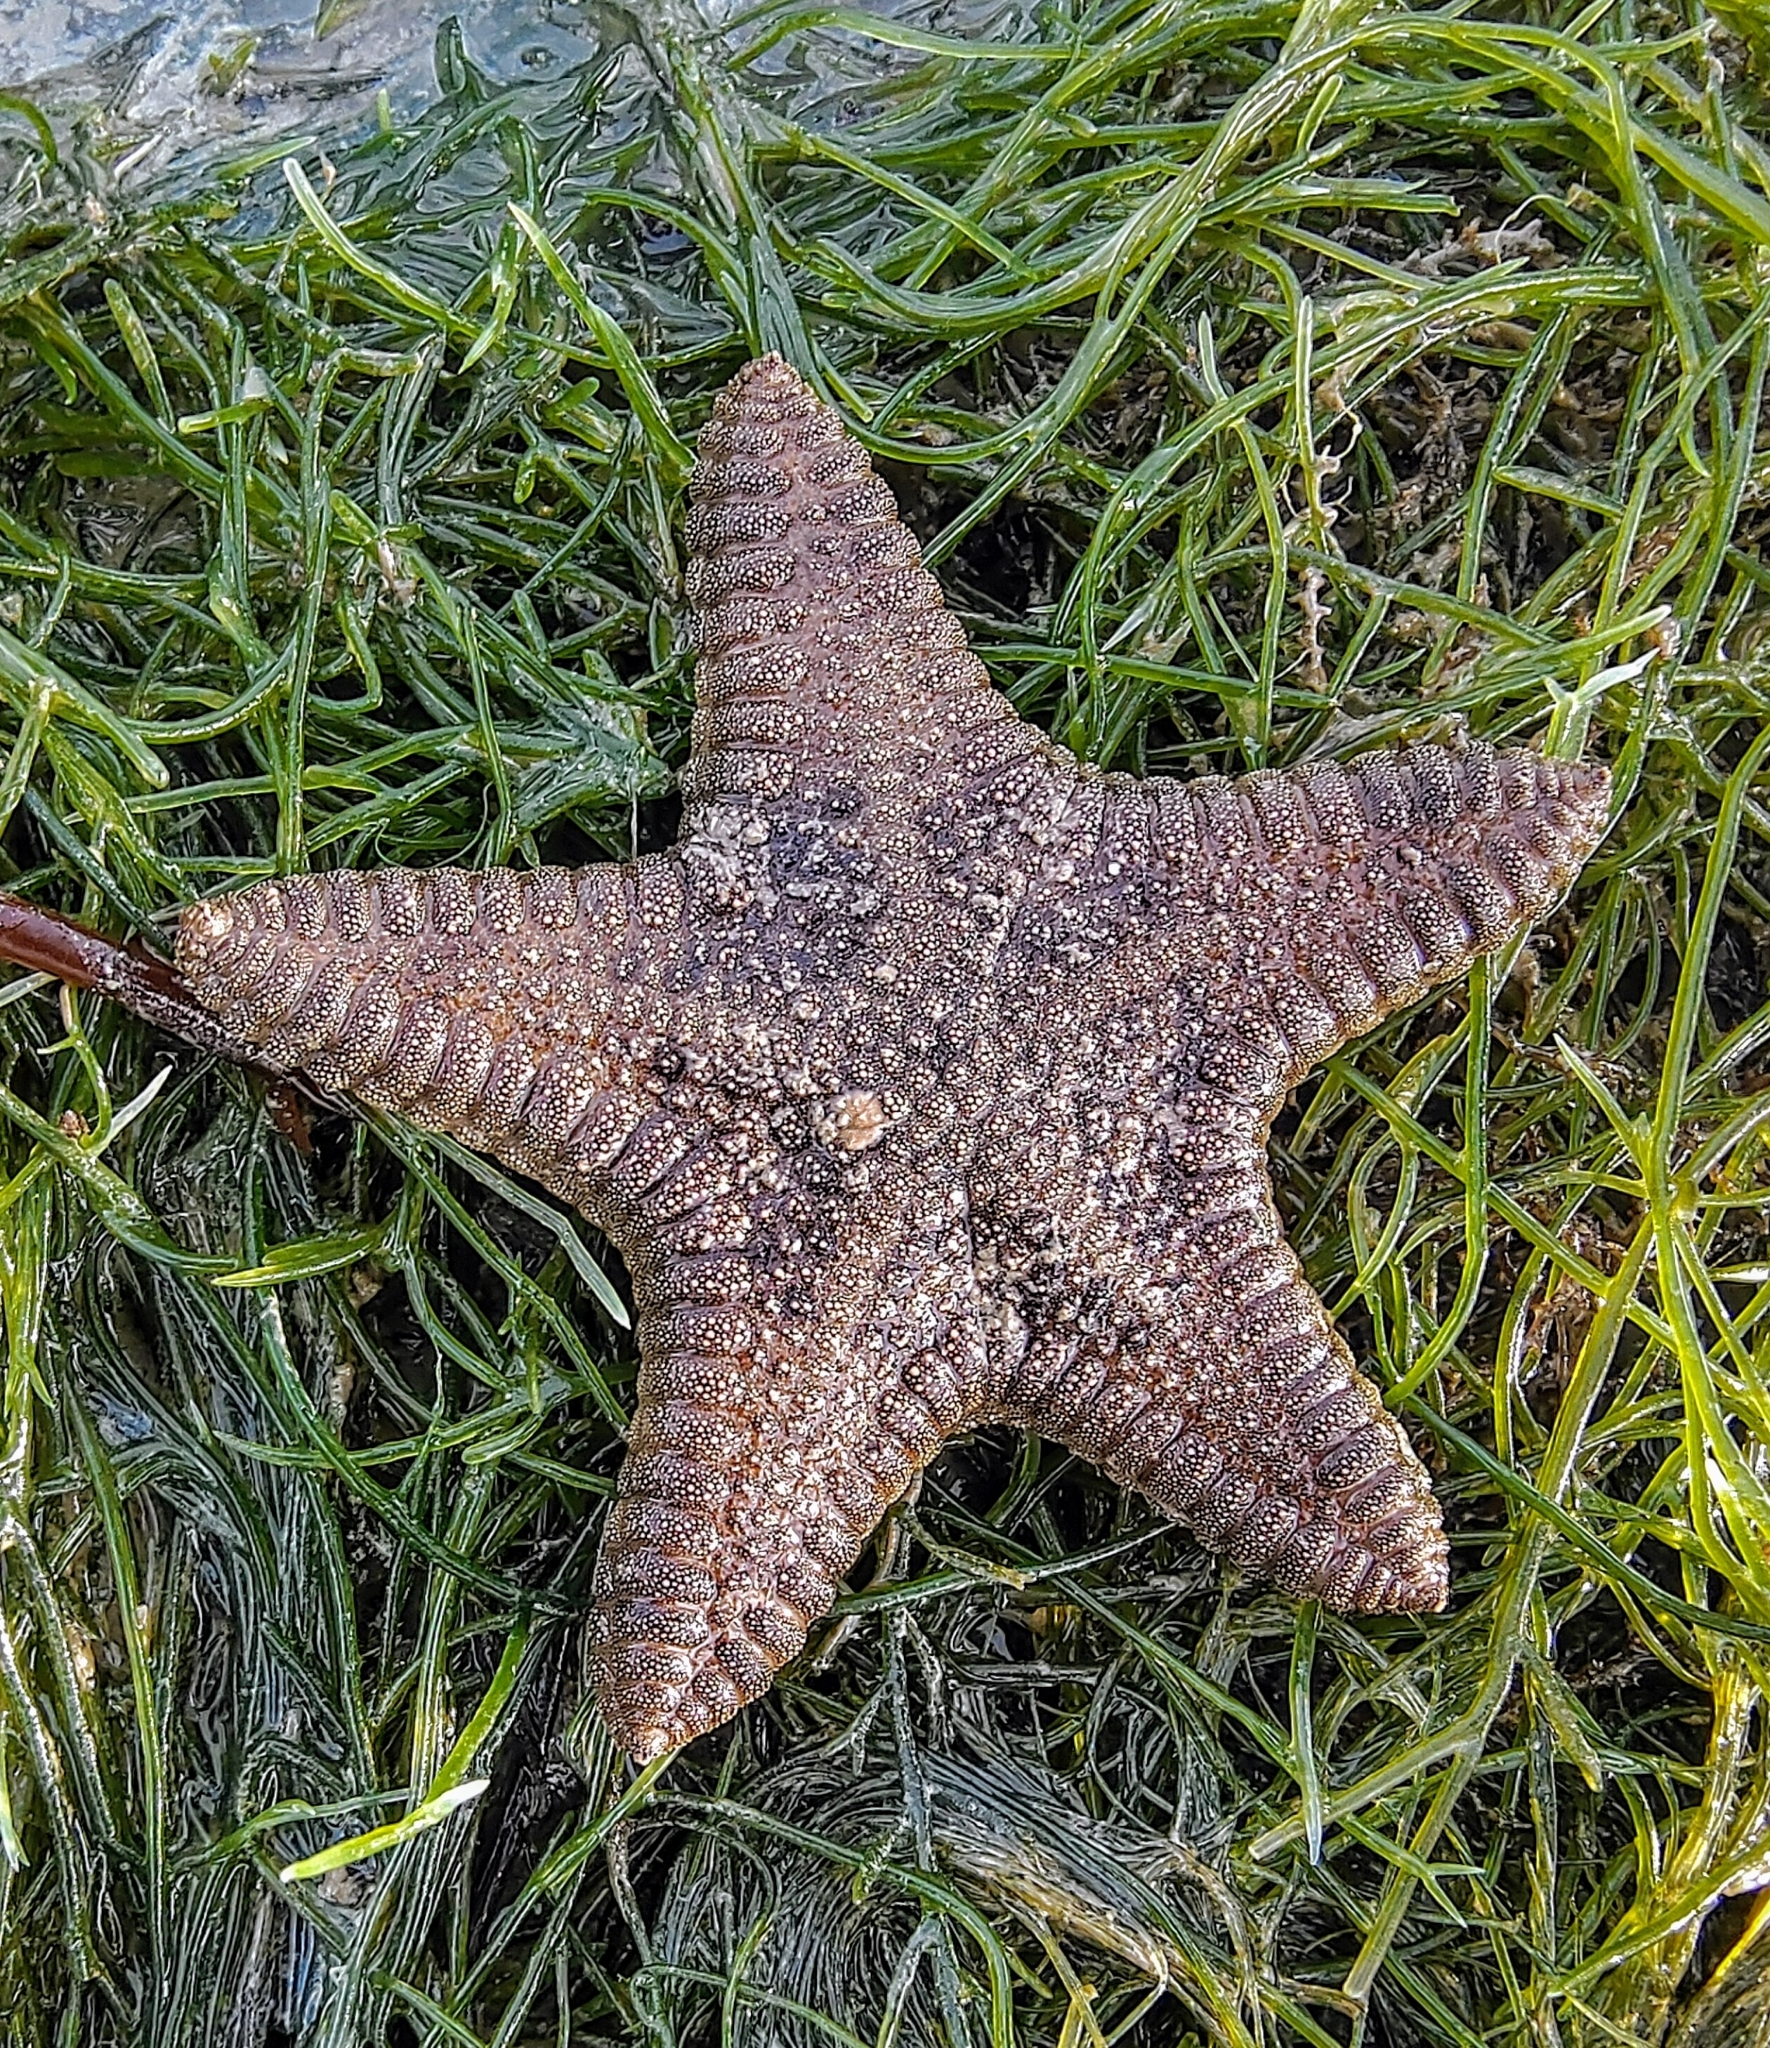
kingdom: Animalia
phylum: Echinodermata
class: Asteroidea
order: Valvatida
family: Goniasteridae
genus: Goniodiscaster
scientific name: Goniodiscaster scaber
